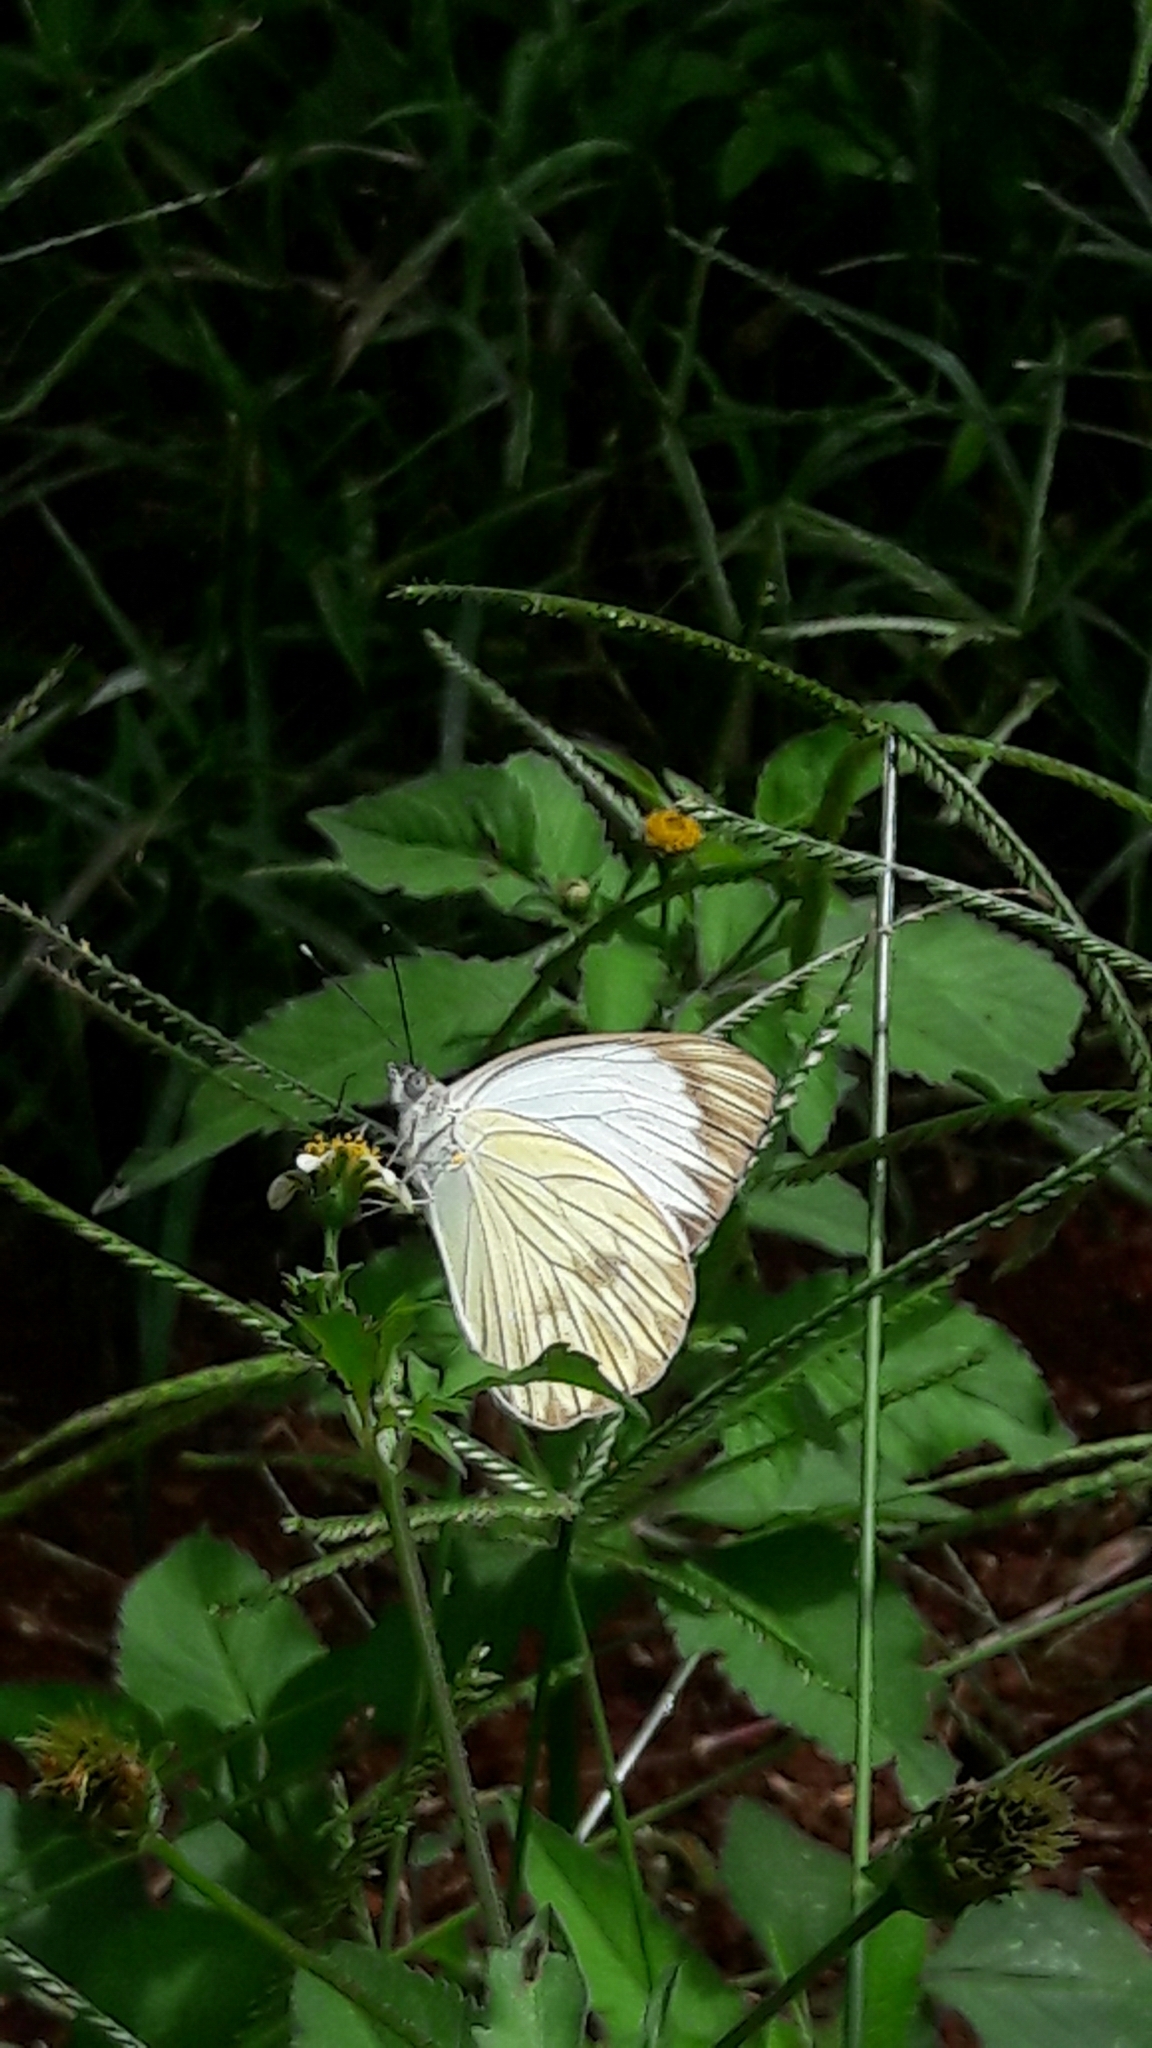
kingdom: Animalia
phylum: Arthropoda
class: Insecta
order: Lepidoptera
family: Pieridae
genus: Ascia
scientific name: Ascia monuste
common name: Great southern white
